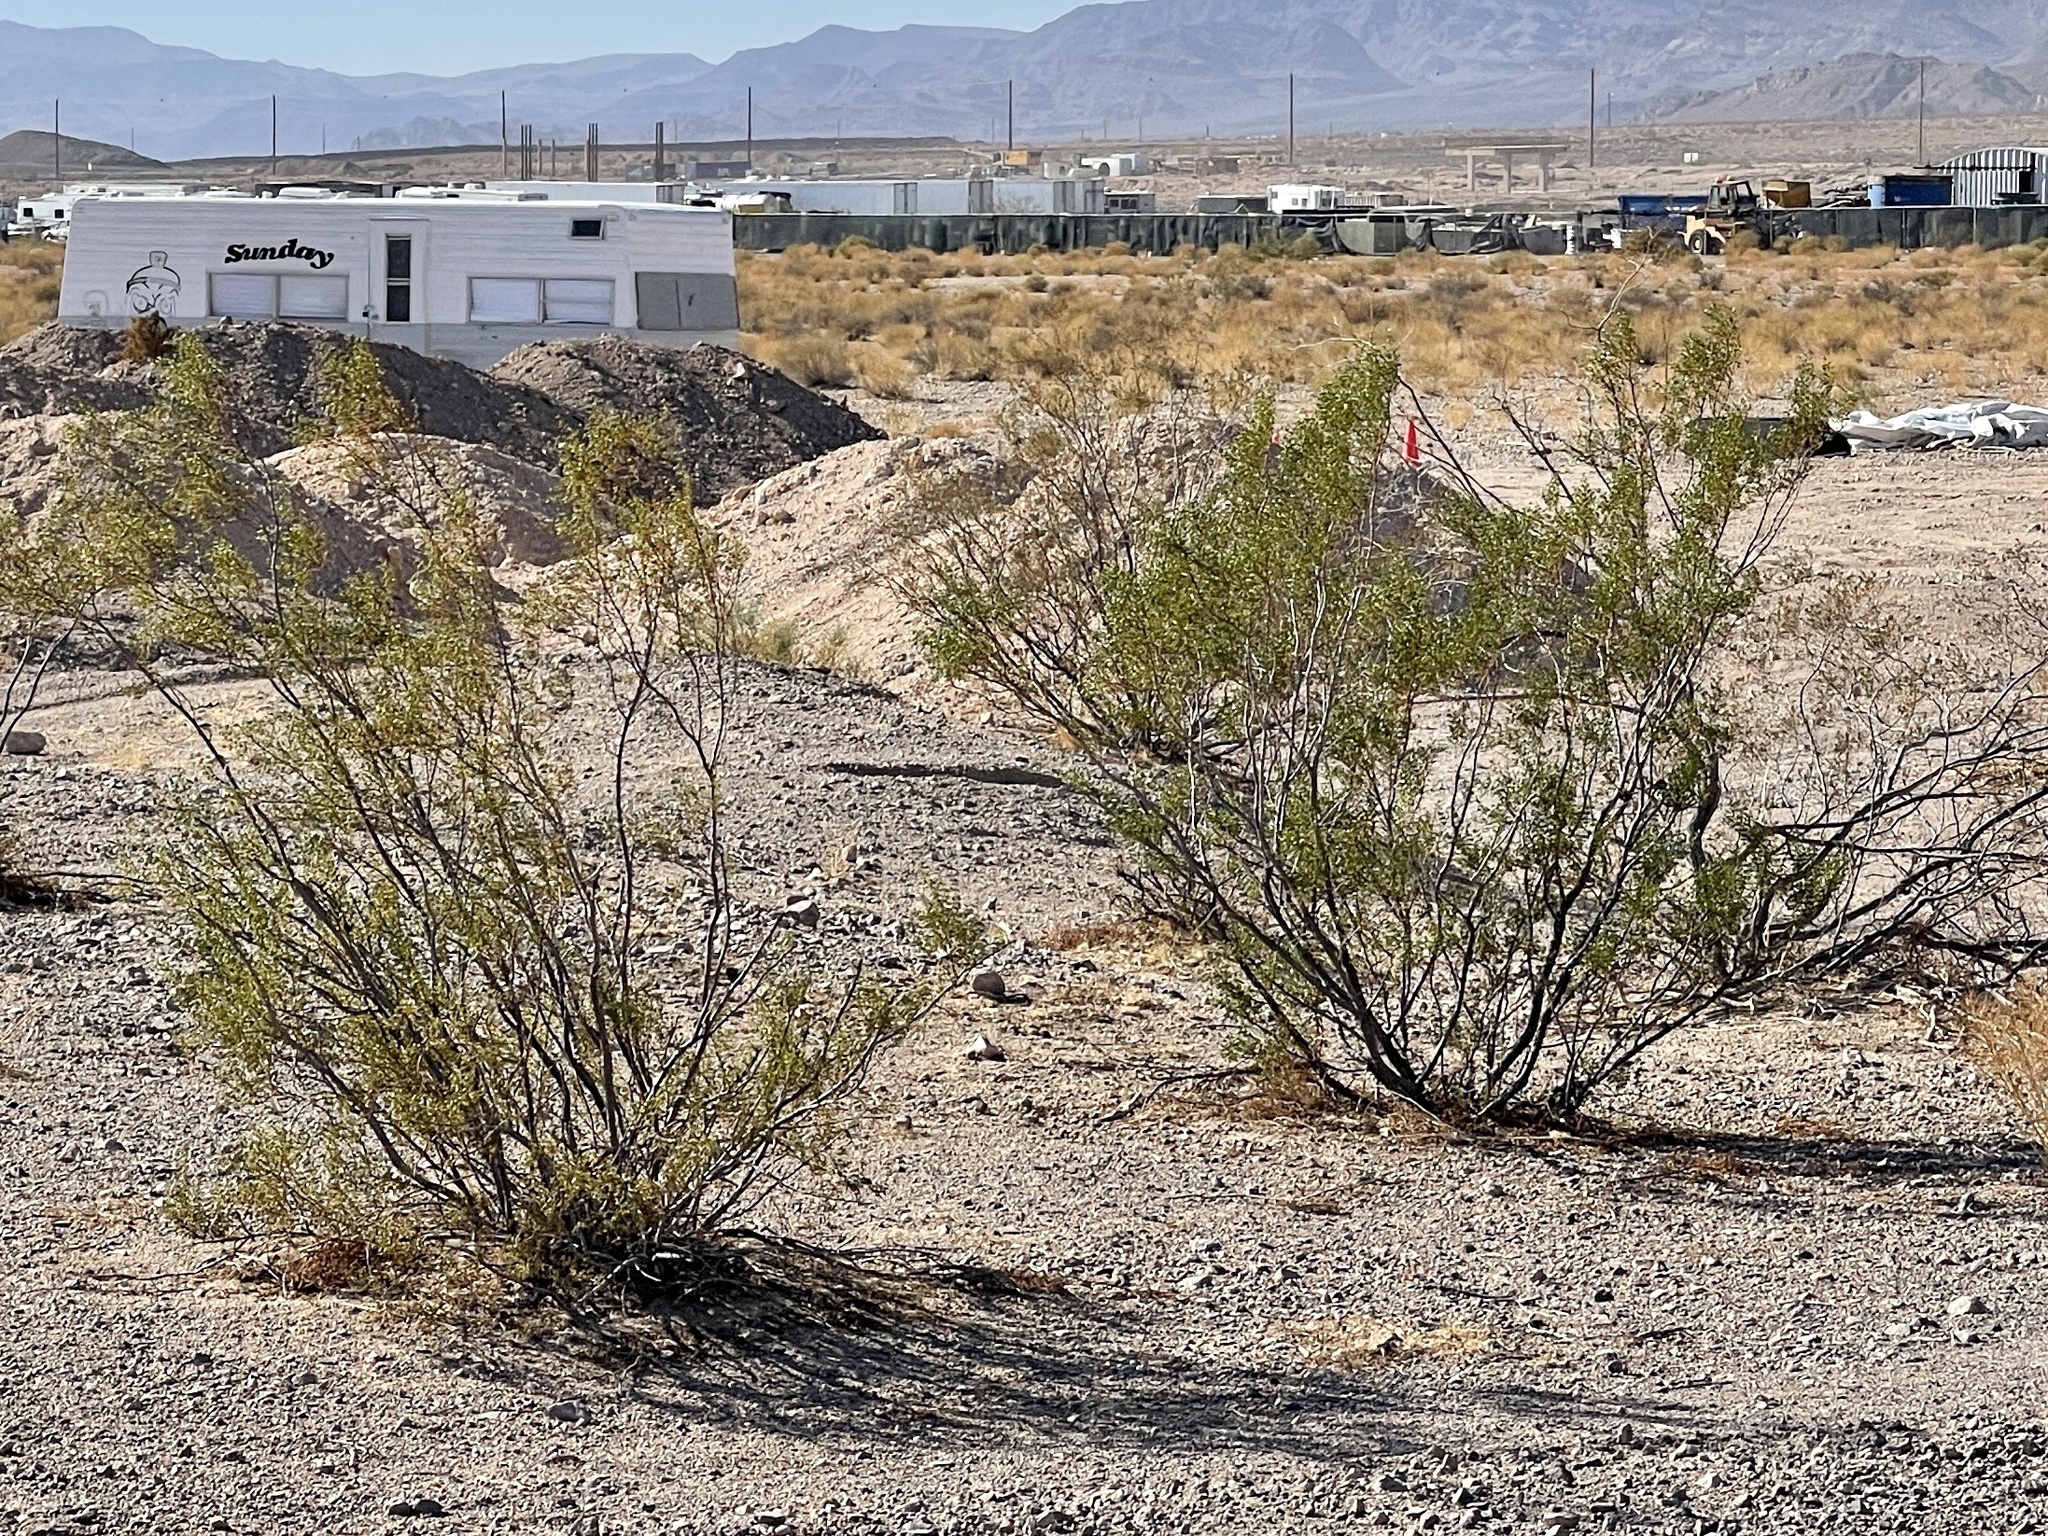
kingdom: Plantae
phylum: Tracheophyta
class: Magnoliopsida
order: Zygophyllales
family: Zygophyllaceae
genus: Larrea
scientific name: Larrea tridentata
